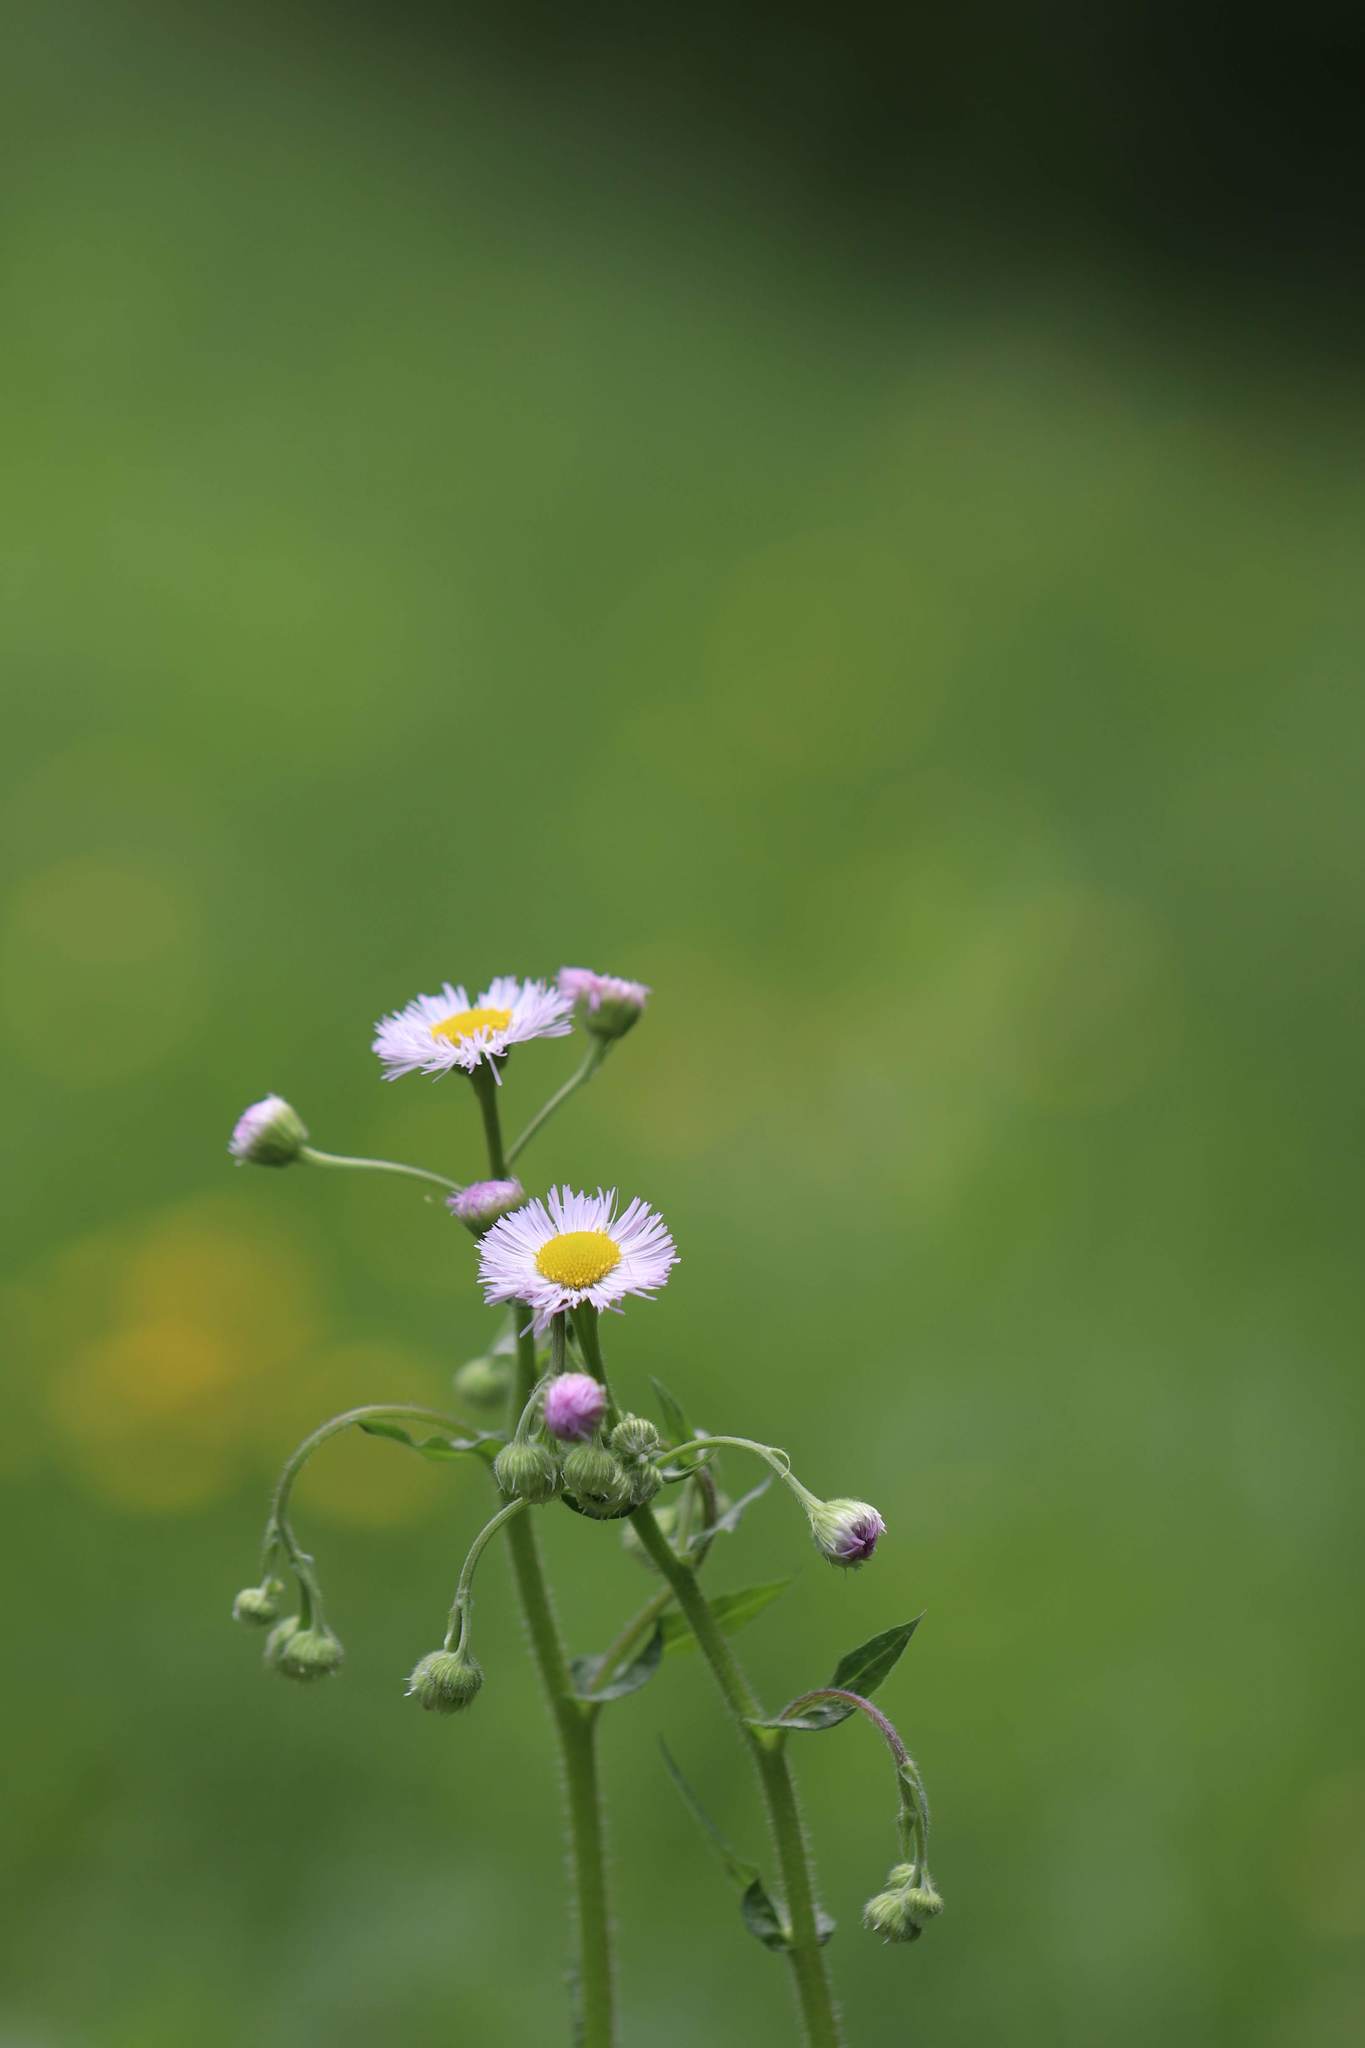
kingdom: Plantae
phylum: Tracheophyta
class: Magnoliopsida
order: Asterales
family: Asteraceae
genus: Erigeron
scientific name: Erigeron philadelphicus
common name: Robin's-plantain
